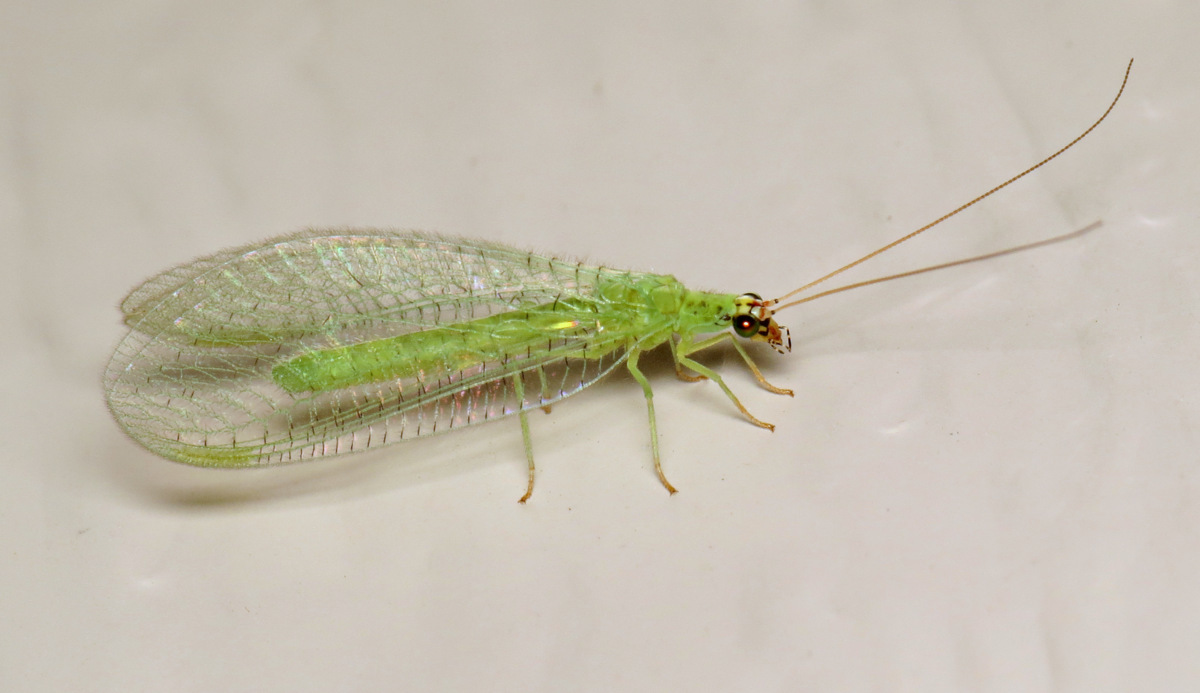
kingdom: Animalia
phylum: Arthropoda
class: Insecta
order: Neuroptera
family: Chrysopidae
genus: Chrysopa
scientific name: Chrysopa oculata
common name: Golden-eyed lacewing
